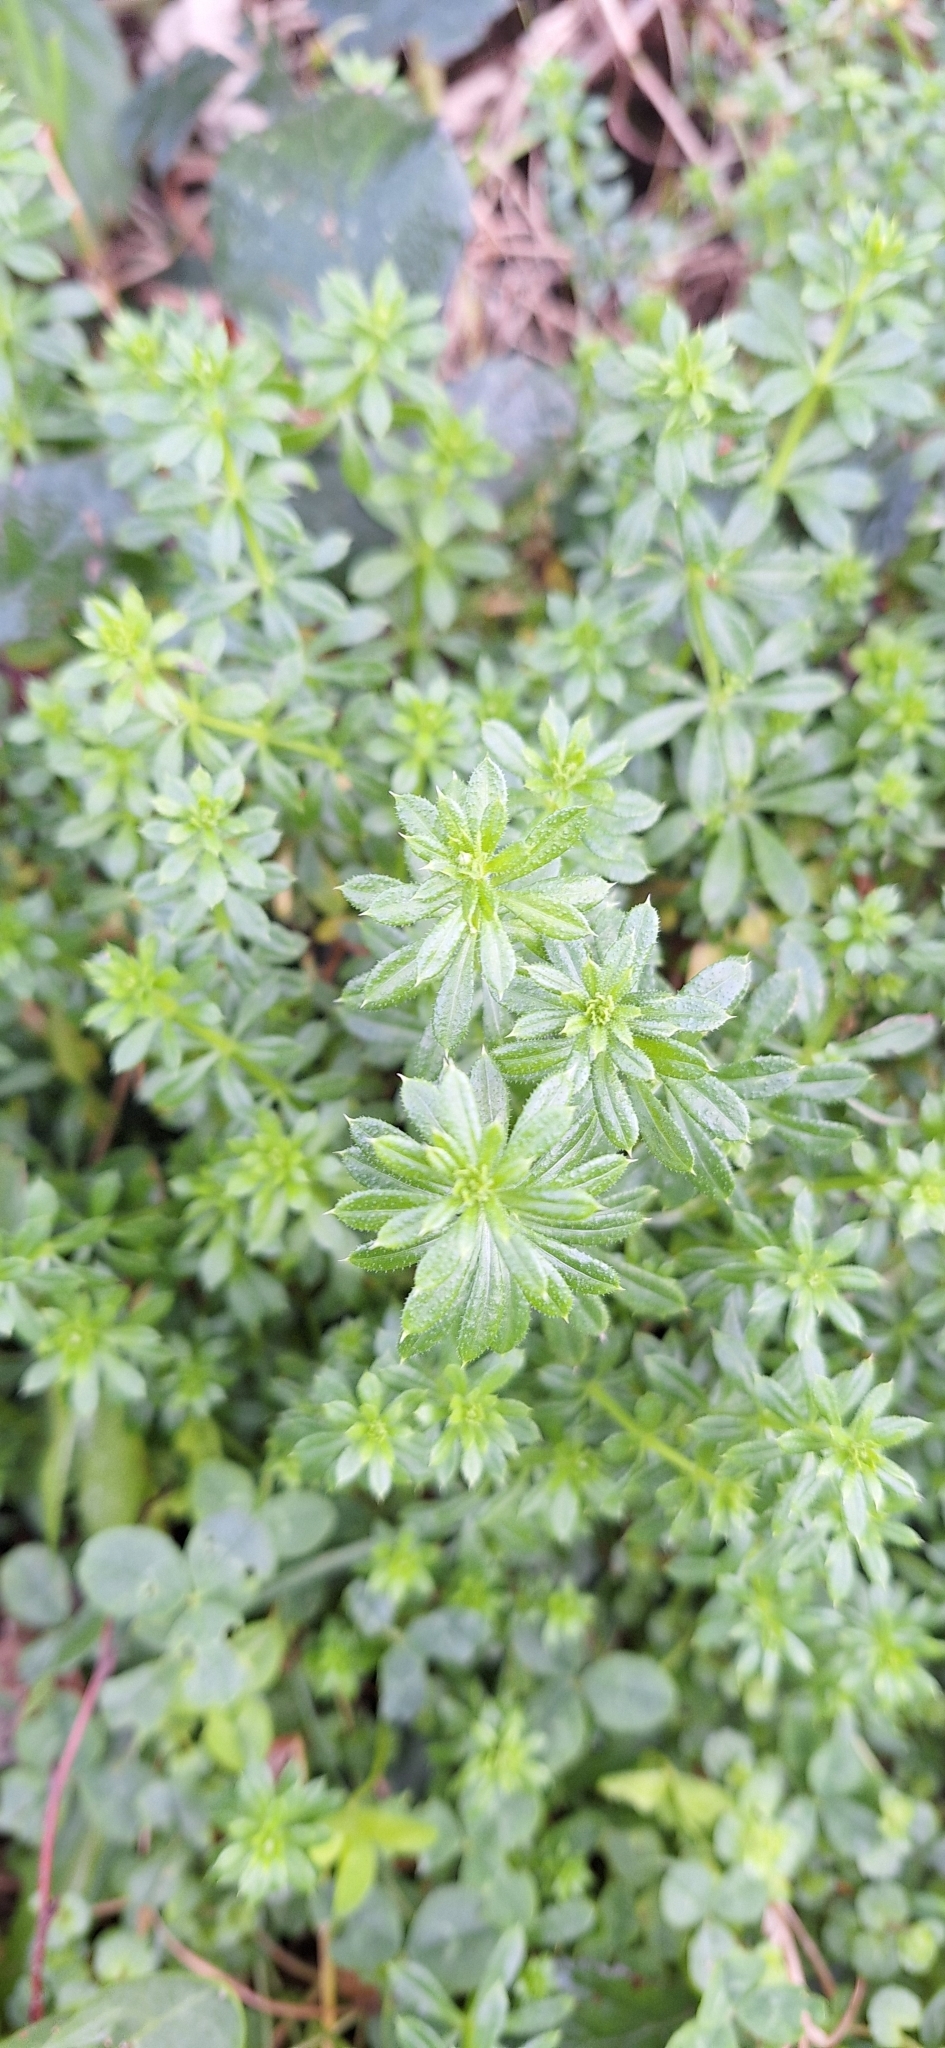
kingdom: Plantae
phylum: Tracheophyta
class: Magnoliopsida
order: Gentianales
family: Rubiaceae
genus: Galium
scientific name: Galium mollugo
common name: Hedge bedstraw
